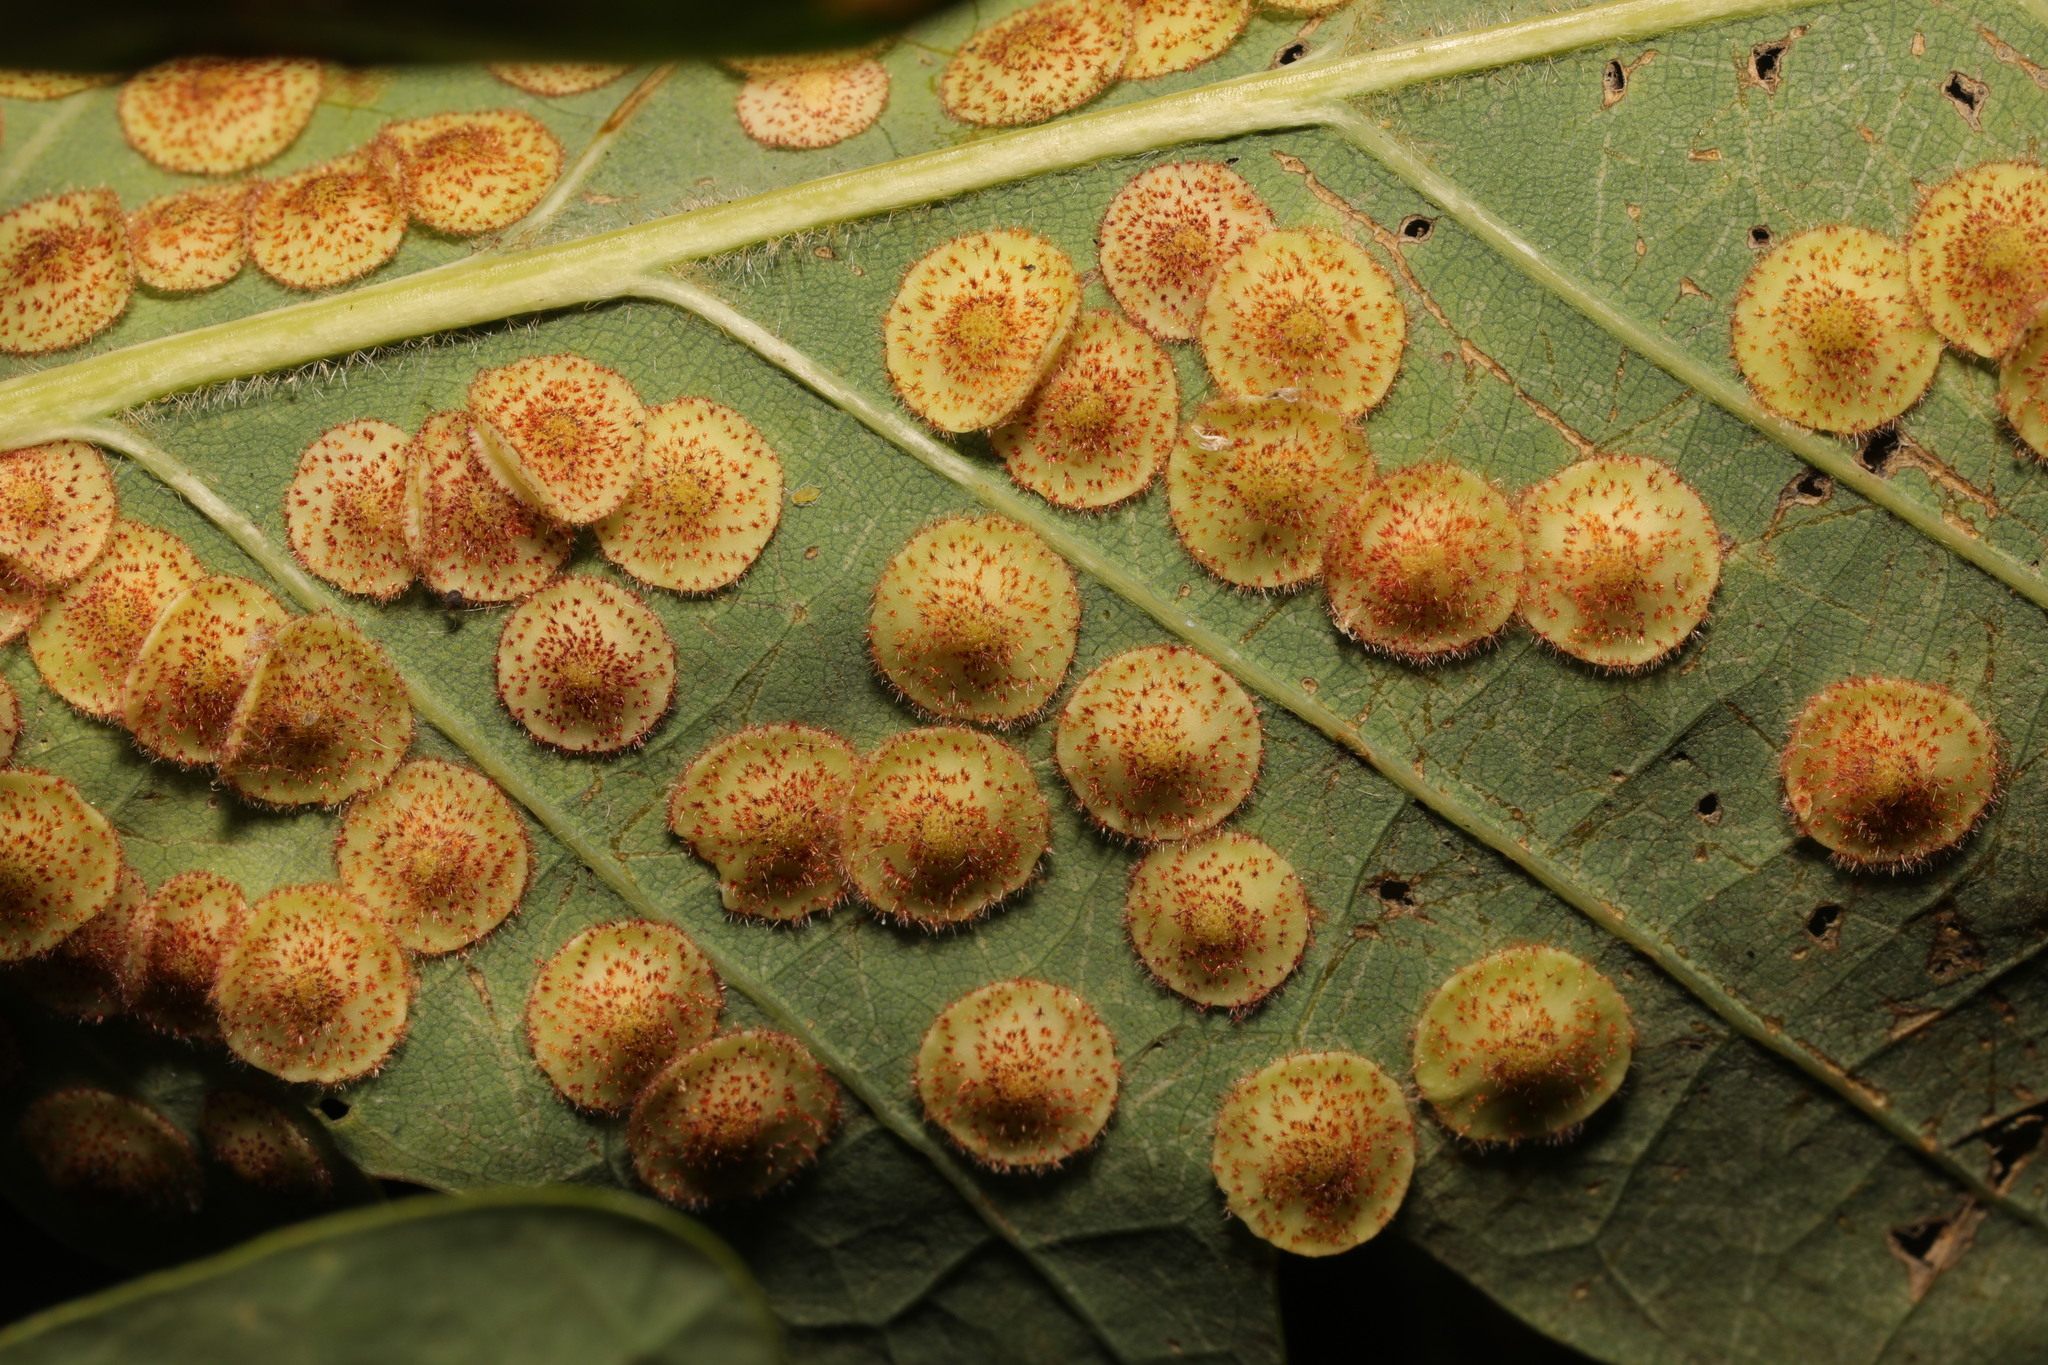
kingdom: Animalia
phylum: Arthropoda
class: Insecta
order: Hymenoptera
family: Cynipidae
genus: Neuroterus
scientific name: Neuroterus quercusbaccarum
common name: Common spangle gall
